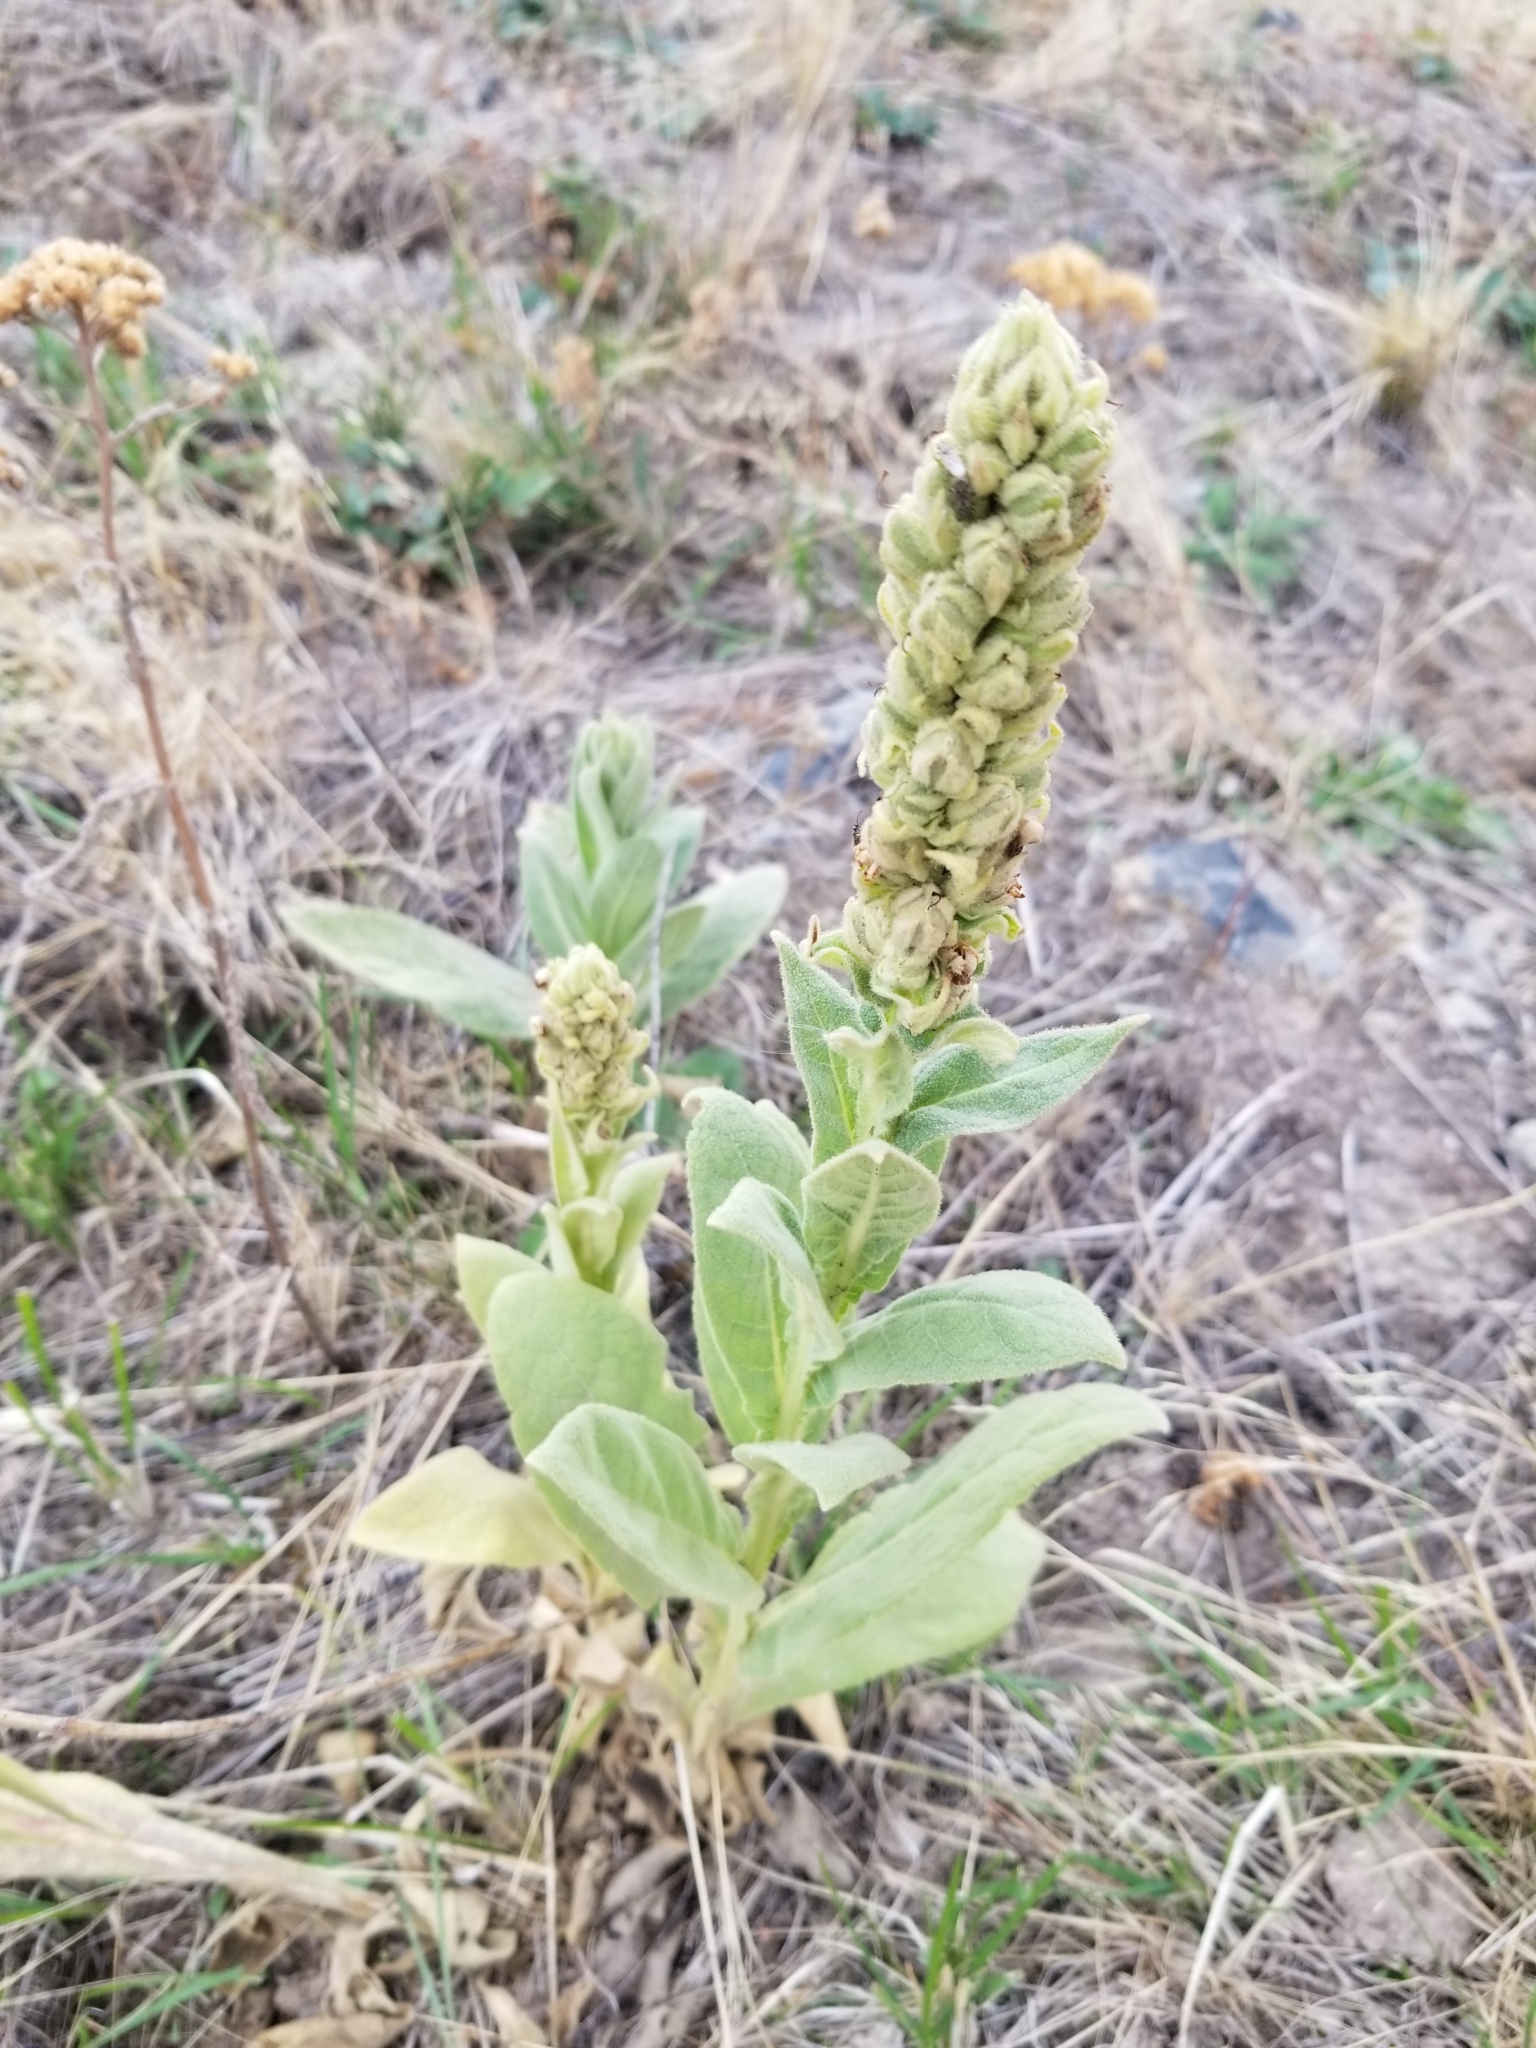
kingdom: Plantae
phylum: Tracheophyta
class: Magnoliopsida
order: Lamiales
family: Scrophulariaceae
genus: Verbascum
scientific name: Verbascum thapsus
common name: Common mullein
